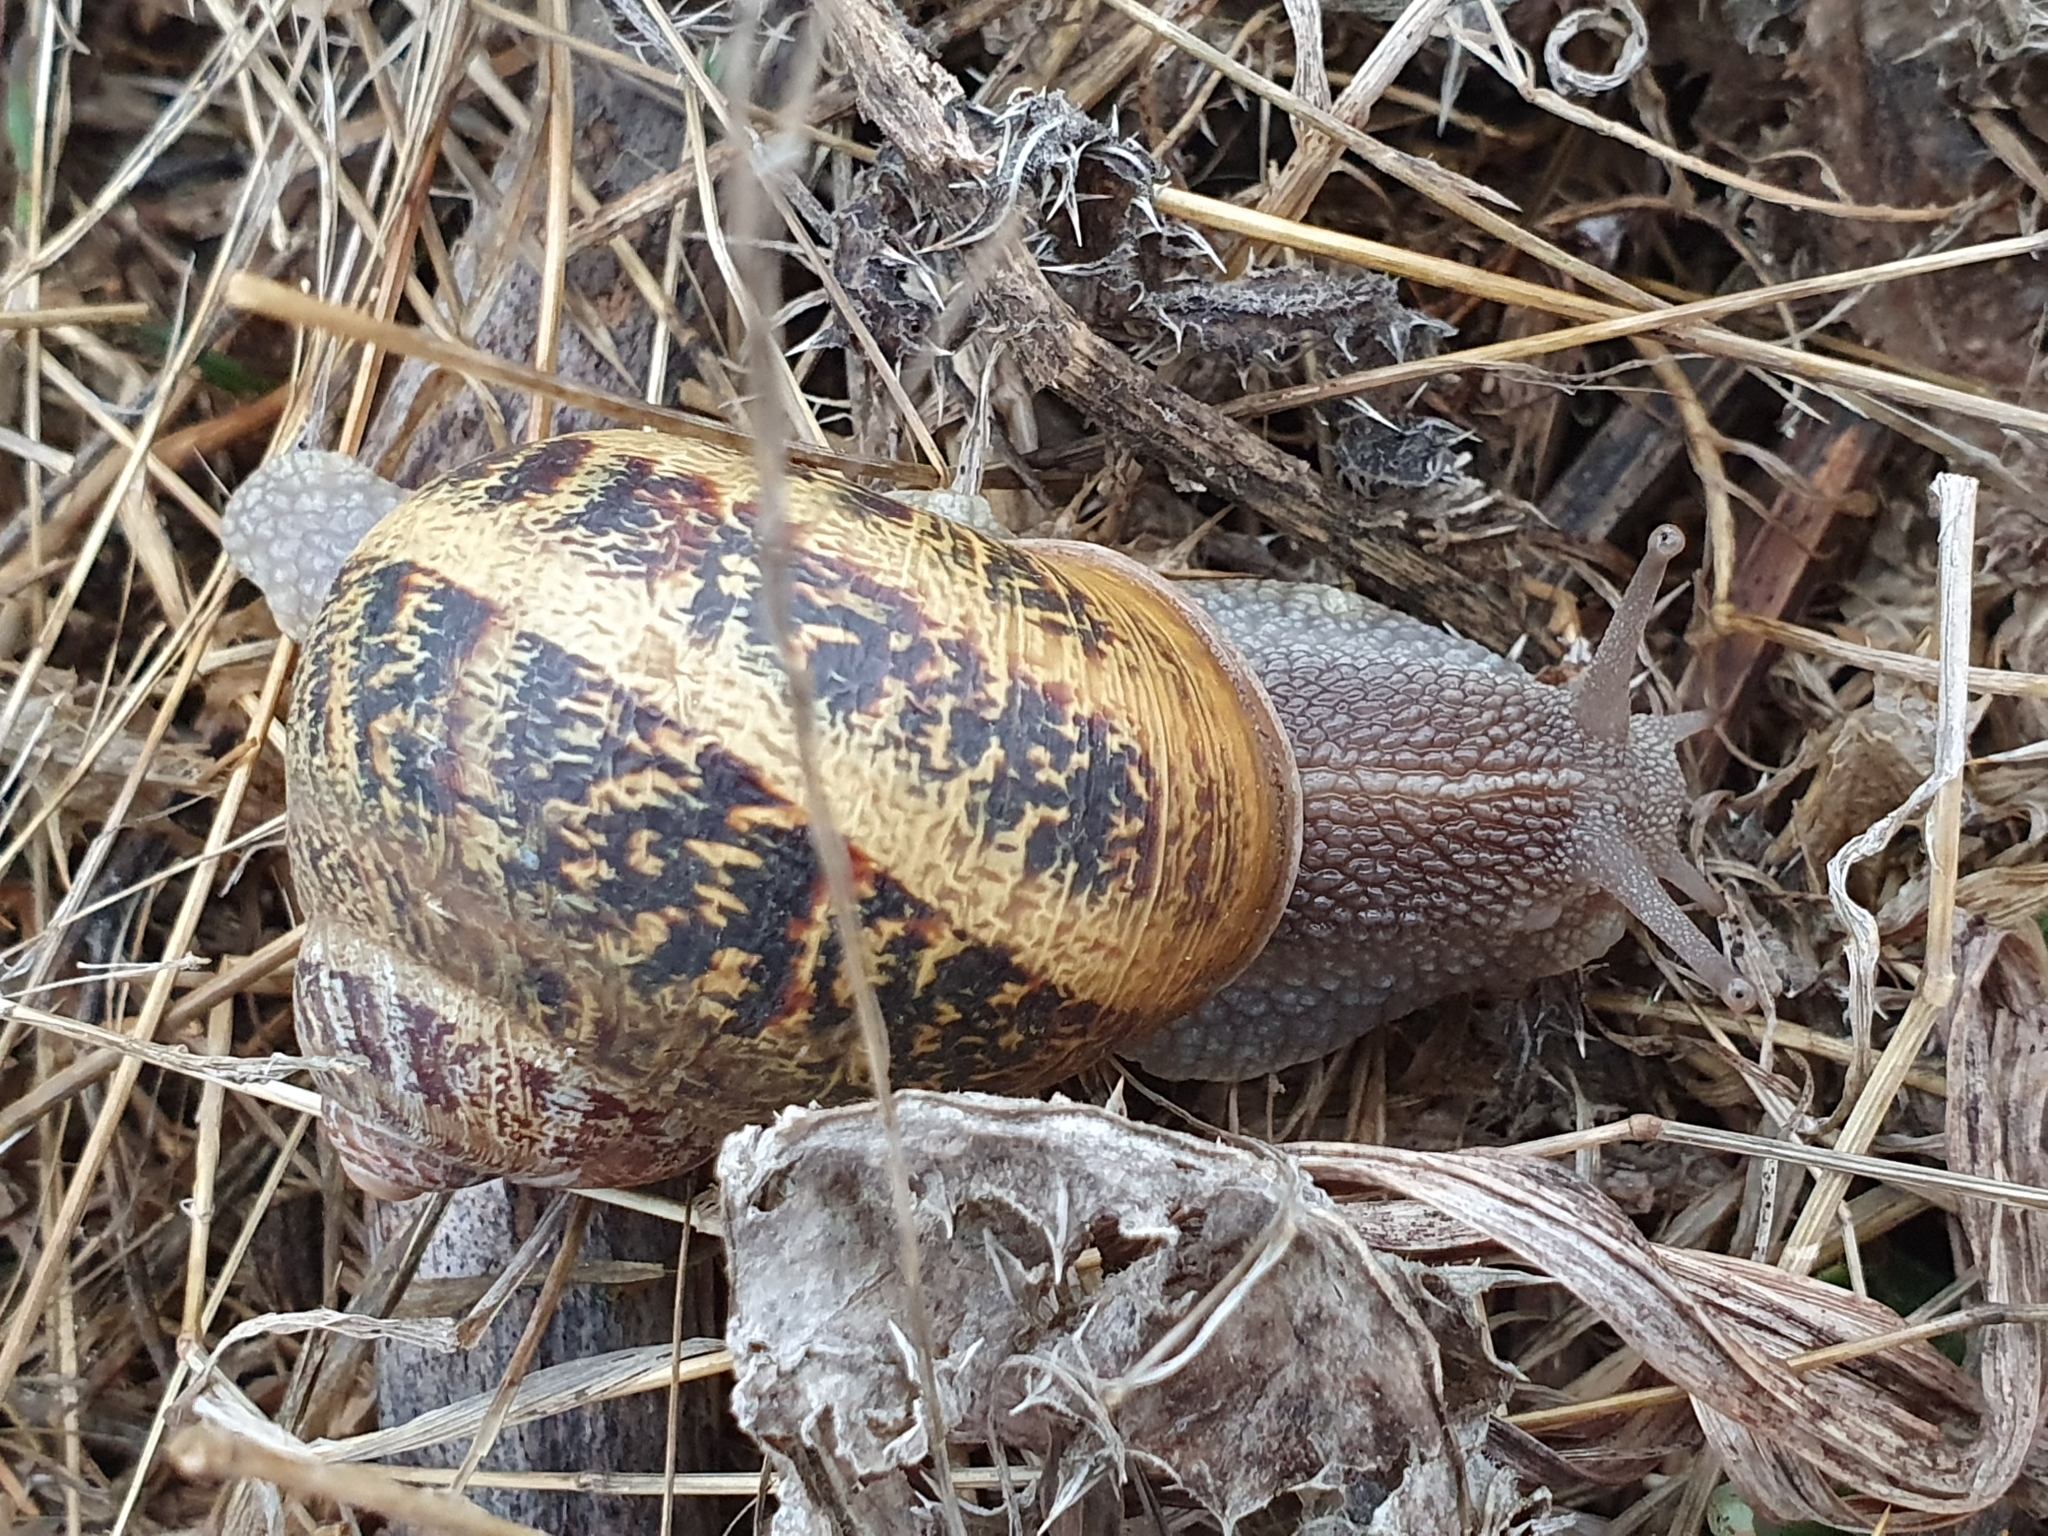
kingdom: Animalia
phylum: Mollusca
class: Gastropoda
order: Stylommatophora
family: Helicidae
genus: Cornu
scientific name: Cornu aspersum
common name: Brown garden snail
